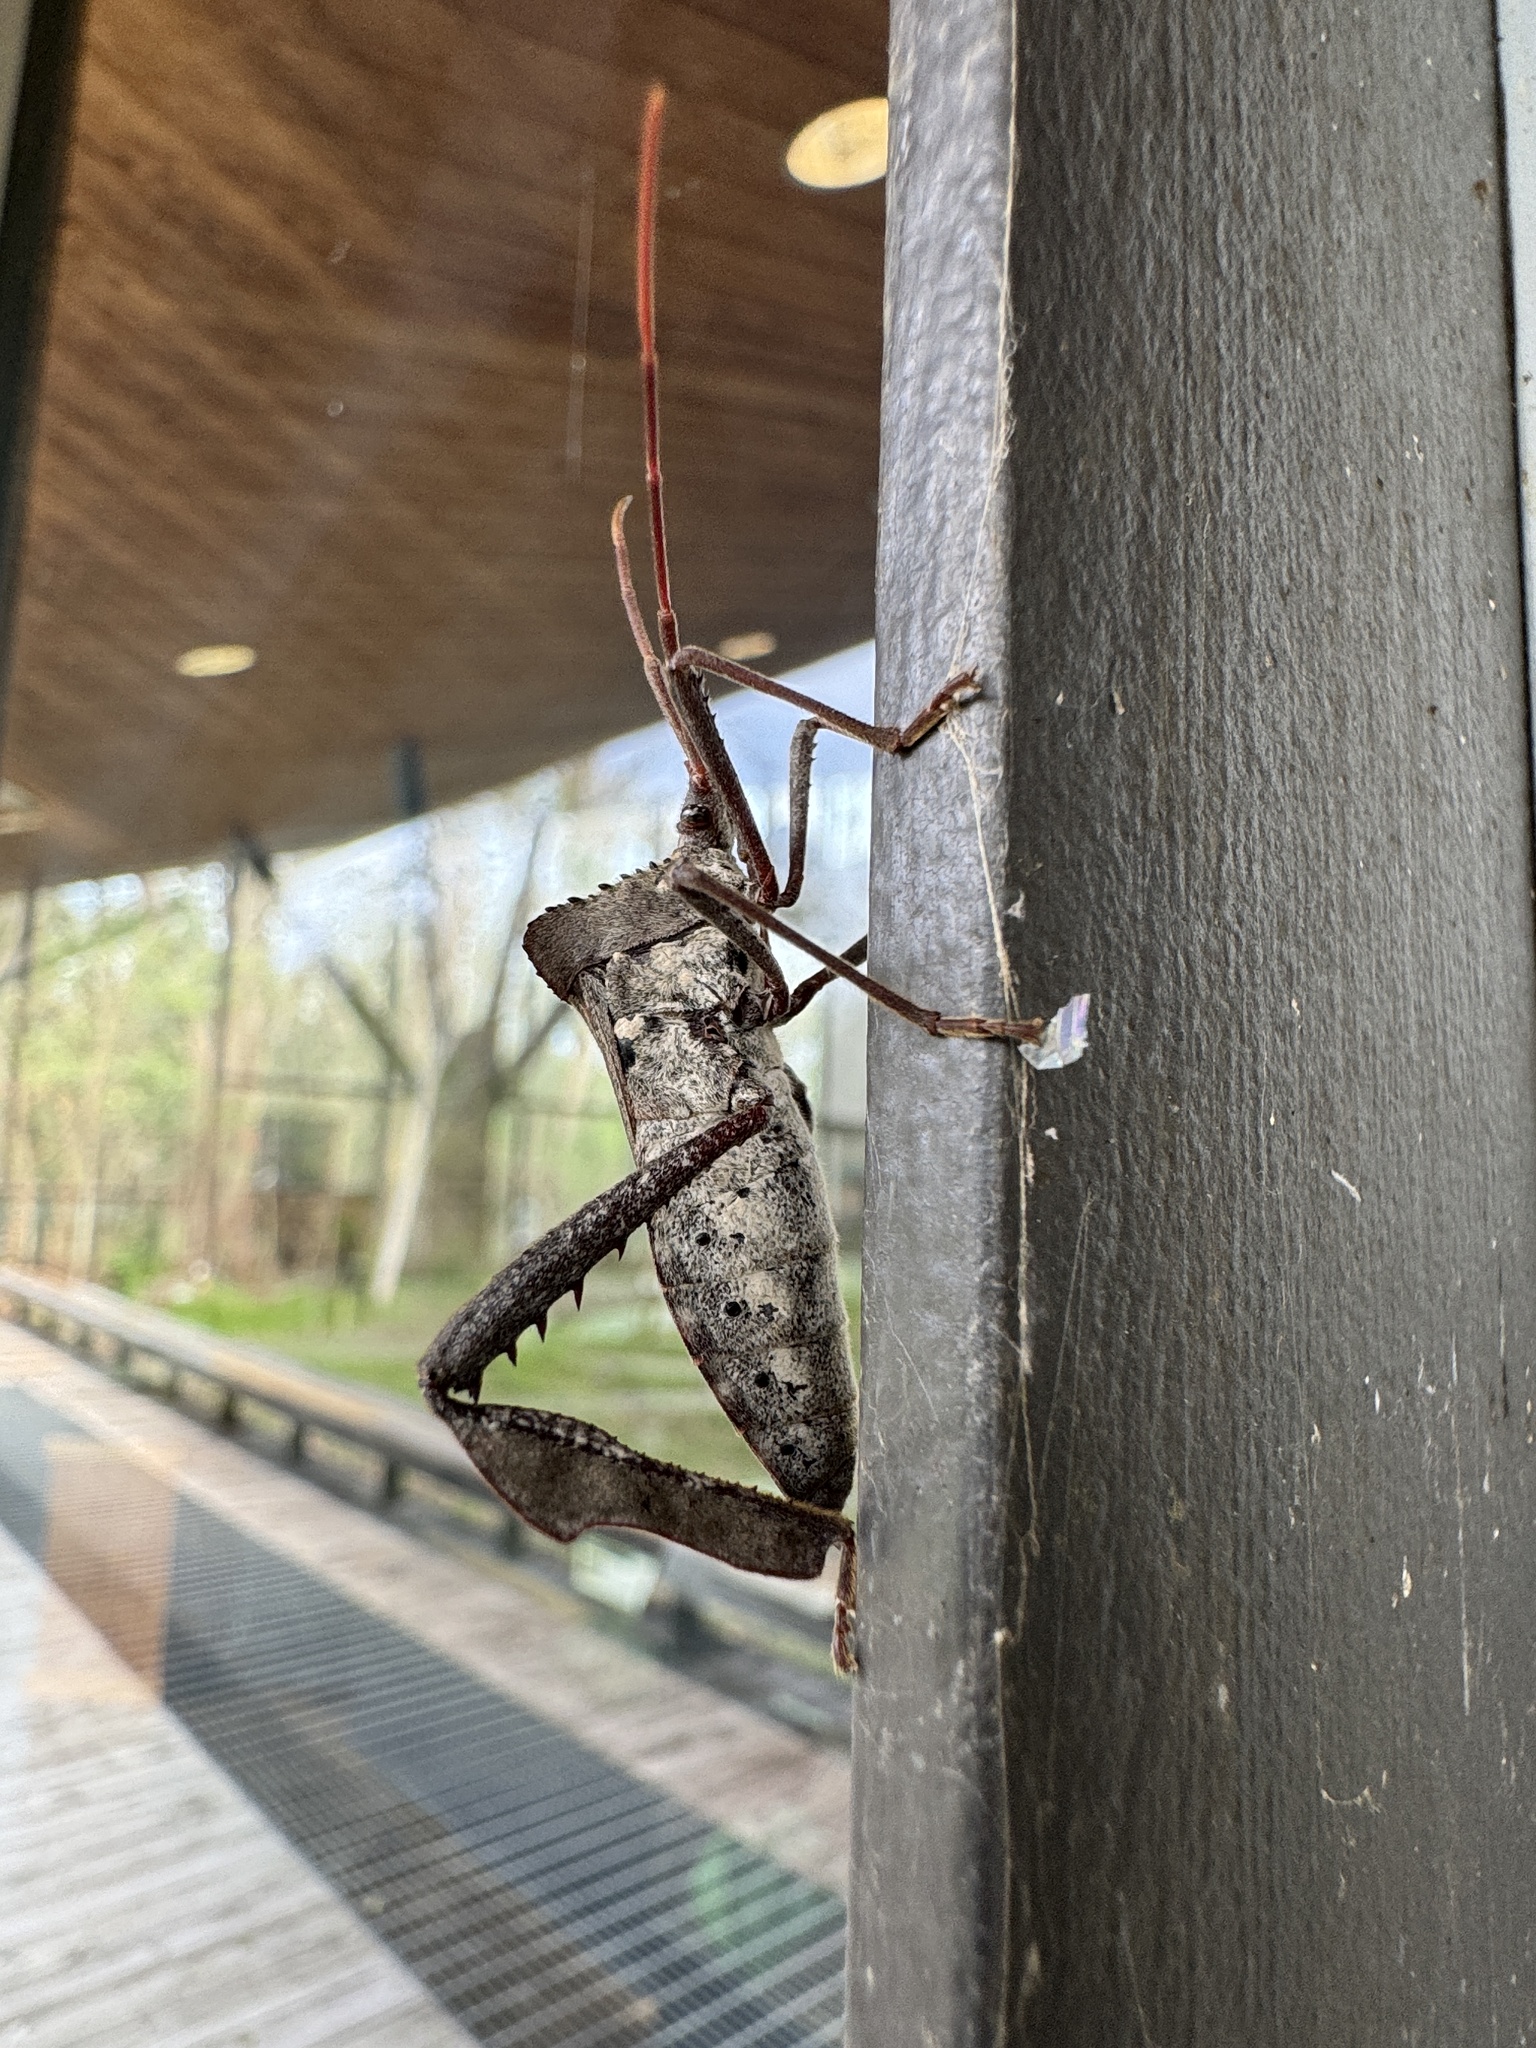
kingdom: Animalia
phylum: Arthropoda
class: Insecta
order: Hemiptera
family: Coreidae
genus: Acanthocephala
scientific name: Acanthocephala declivis
